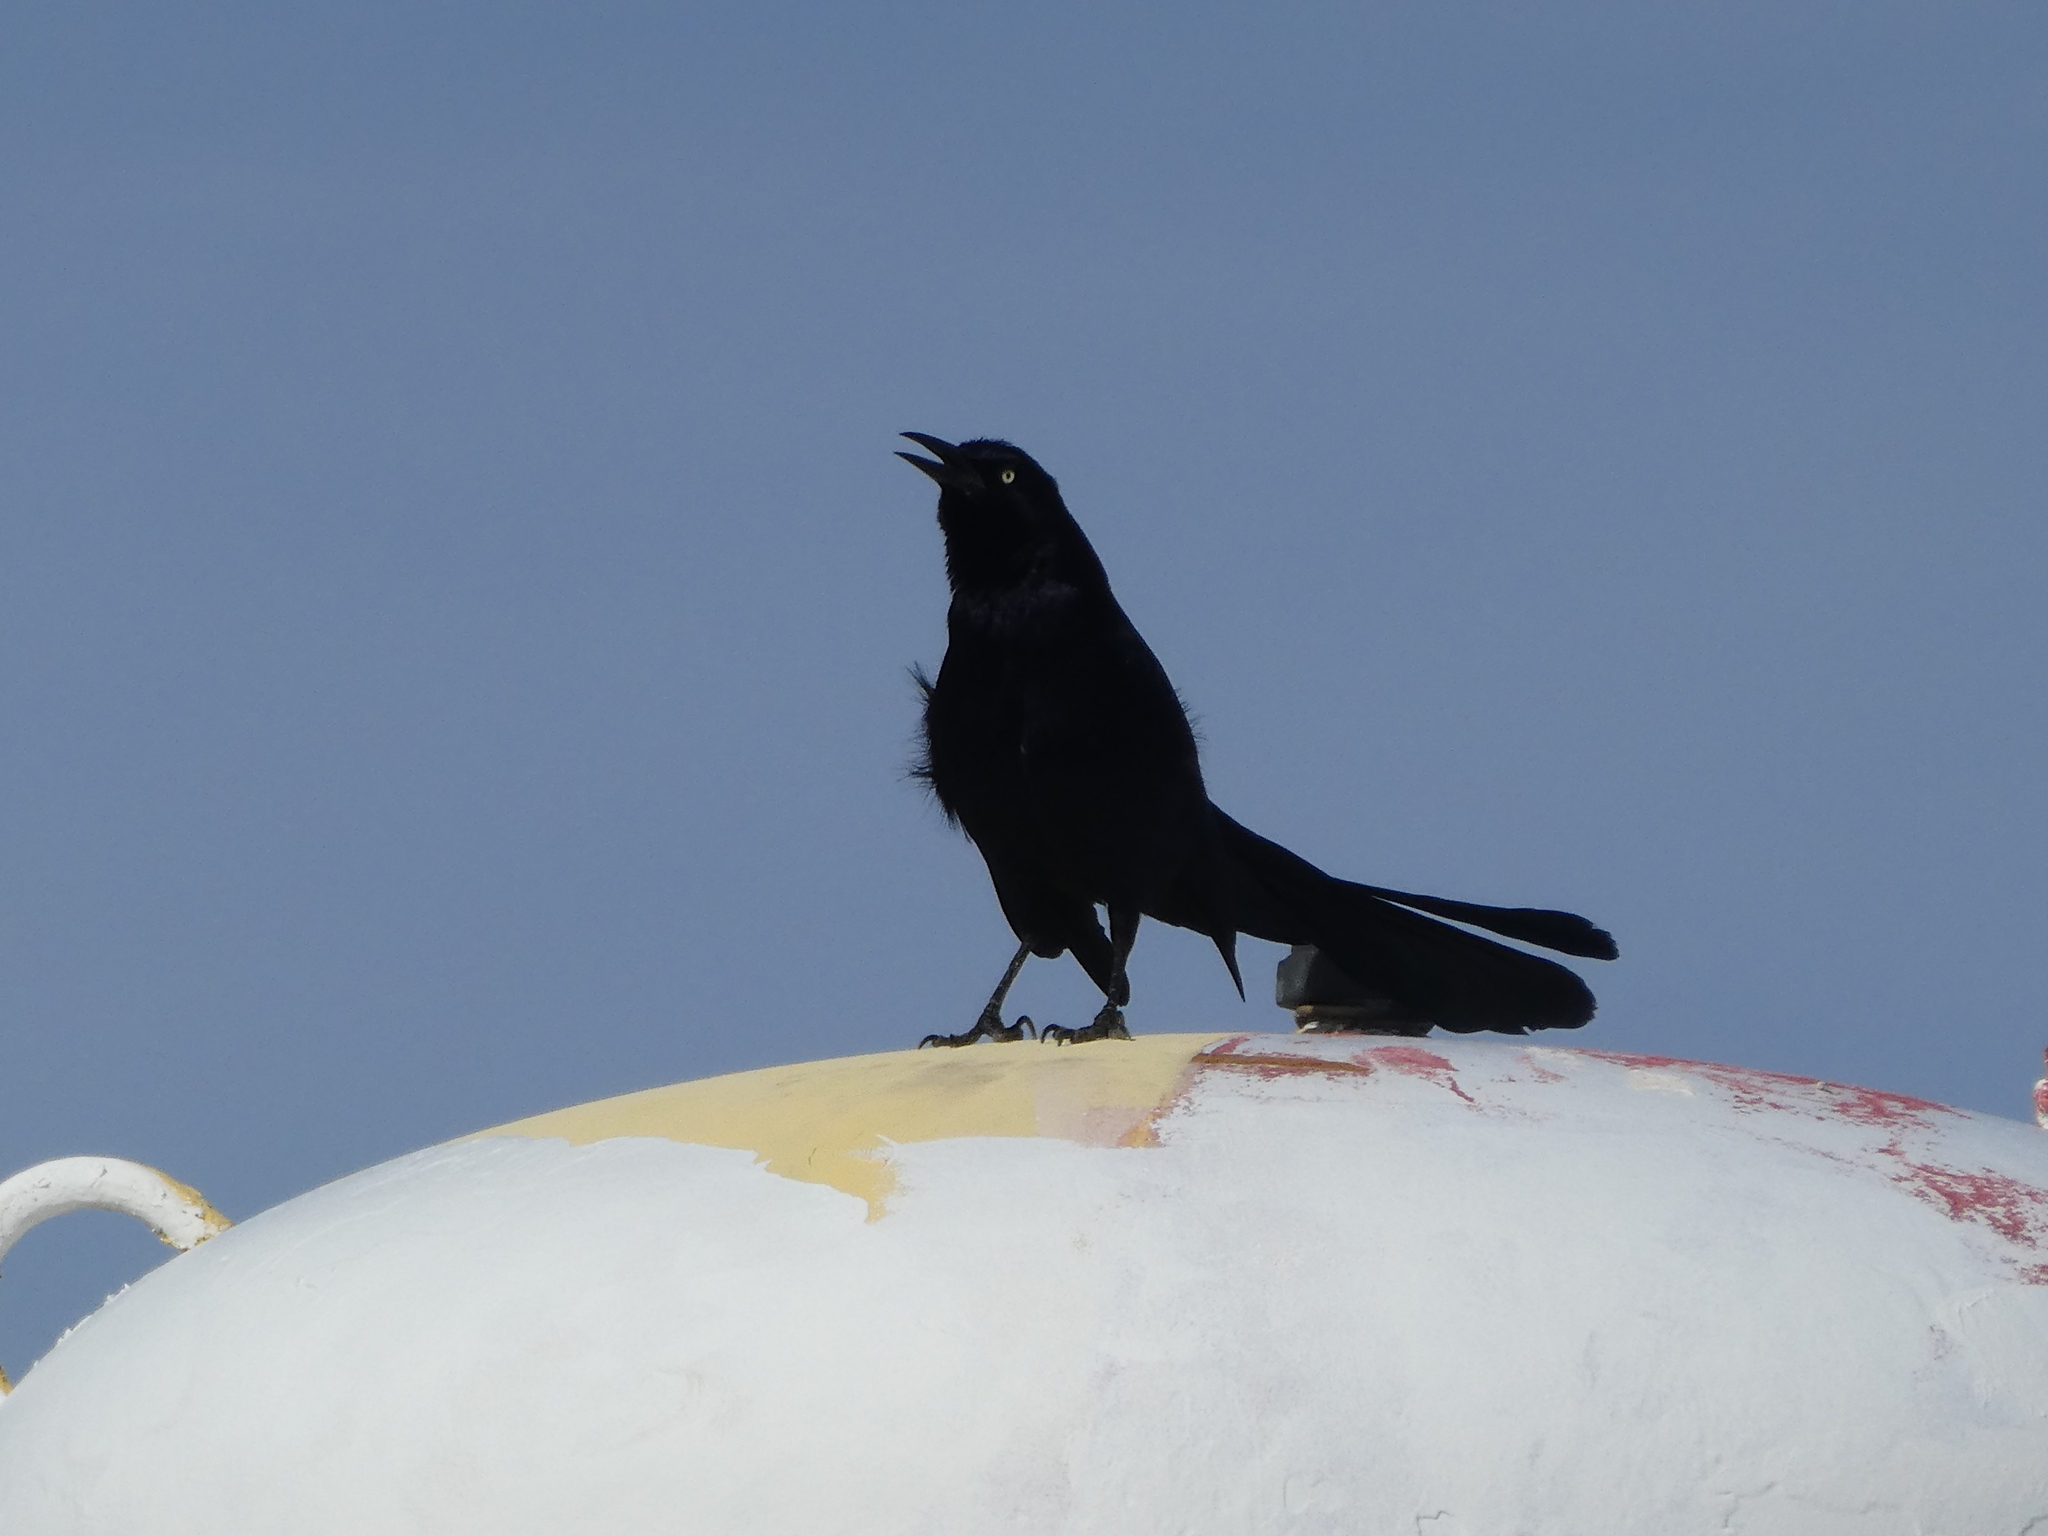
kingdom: Animalia
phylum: Chordata
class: Aves
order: Passeriformes
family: Icteridae
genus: Quiscalus
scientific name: Quiscalus mexicanus
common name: Great-tailed grackle
